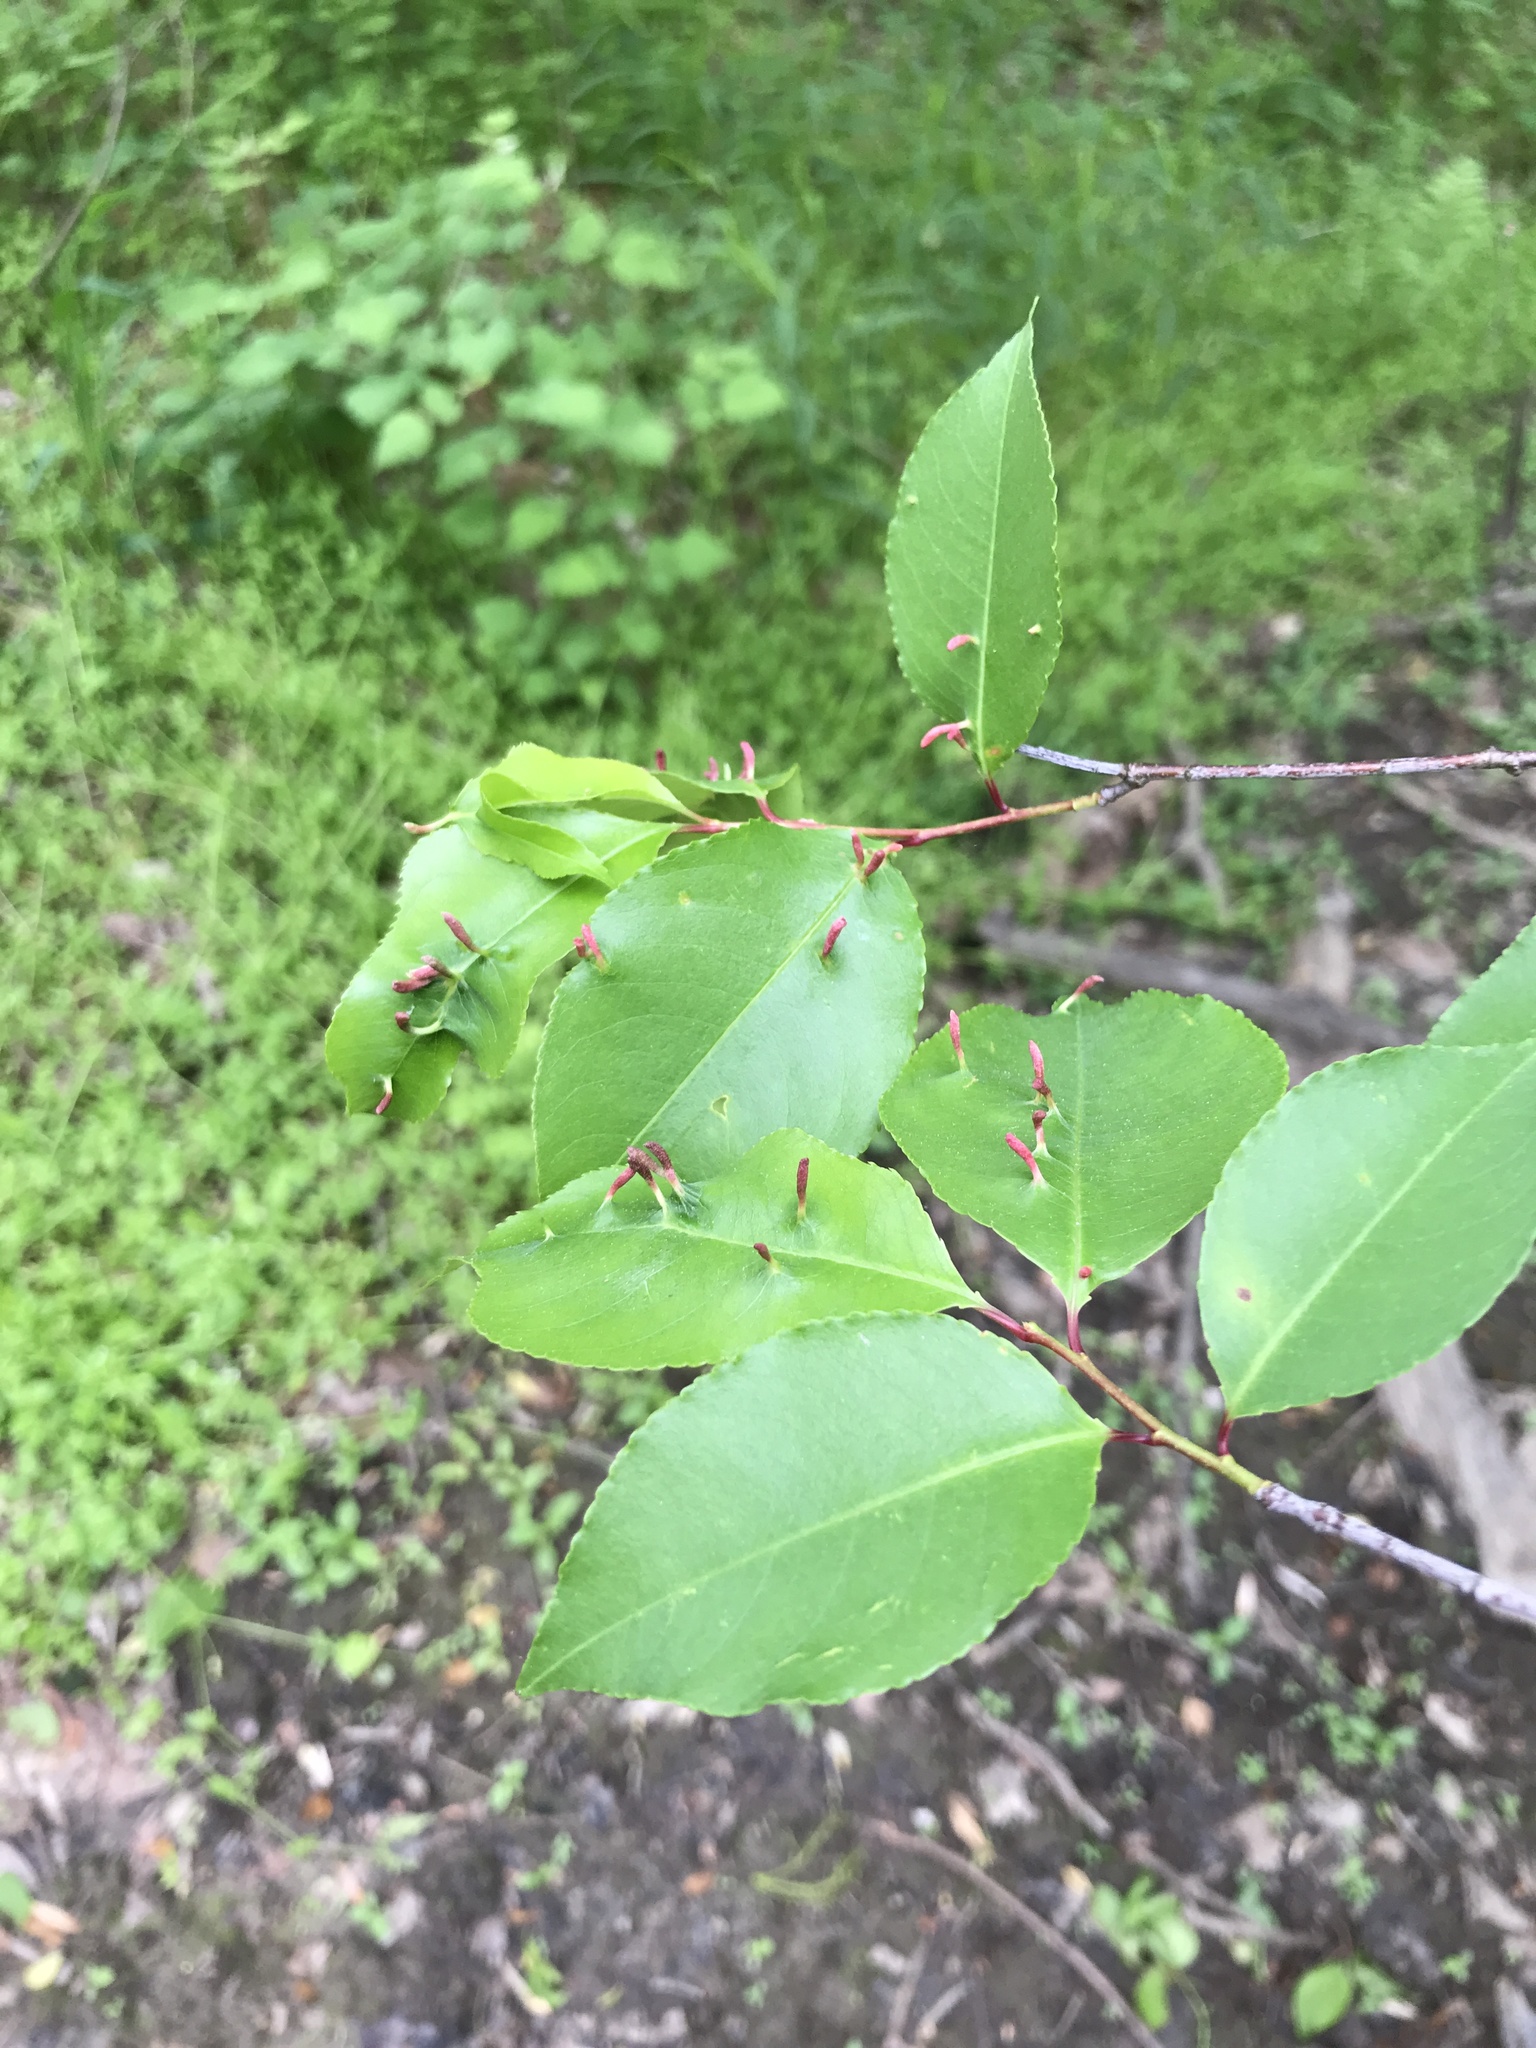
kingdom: Animalia
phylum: Arthropoda
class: Arachnida
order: Trombidiformes
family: Eriophyidae
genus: Eriophyes
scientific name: Eriophyes
